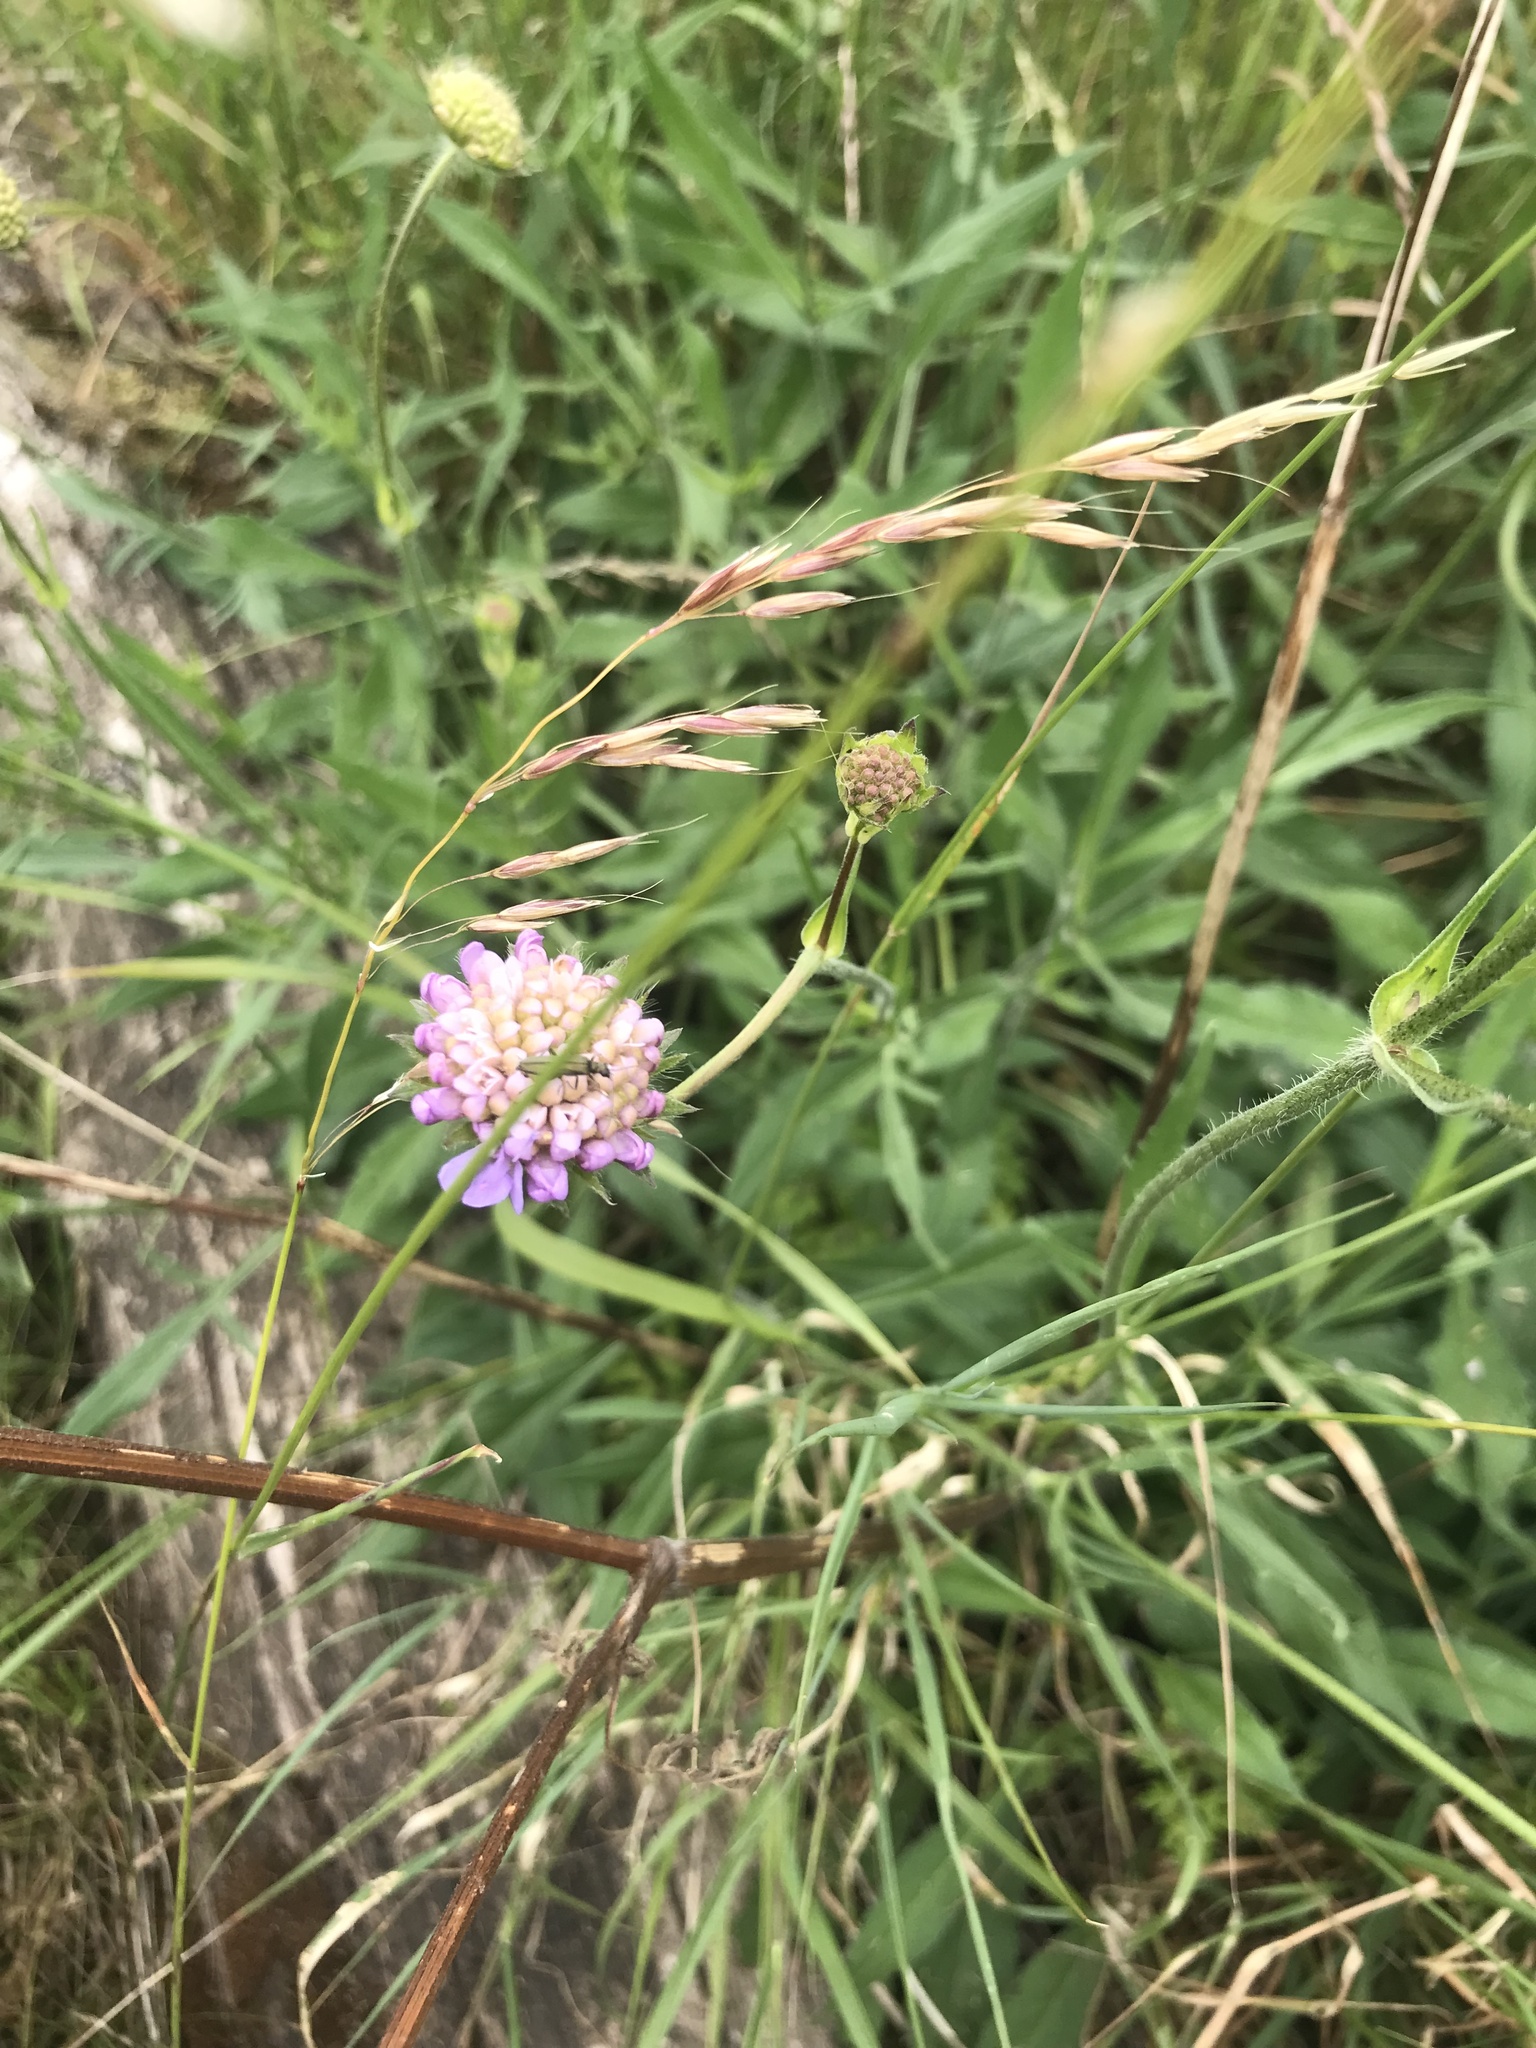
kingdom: Plantae
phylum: Tracheophyta
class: Magnoliopsida
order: Dipsacales
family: Caprifoliaceae
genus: Knautia
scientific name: Knautia arvensis
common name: Field scabiosa
